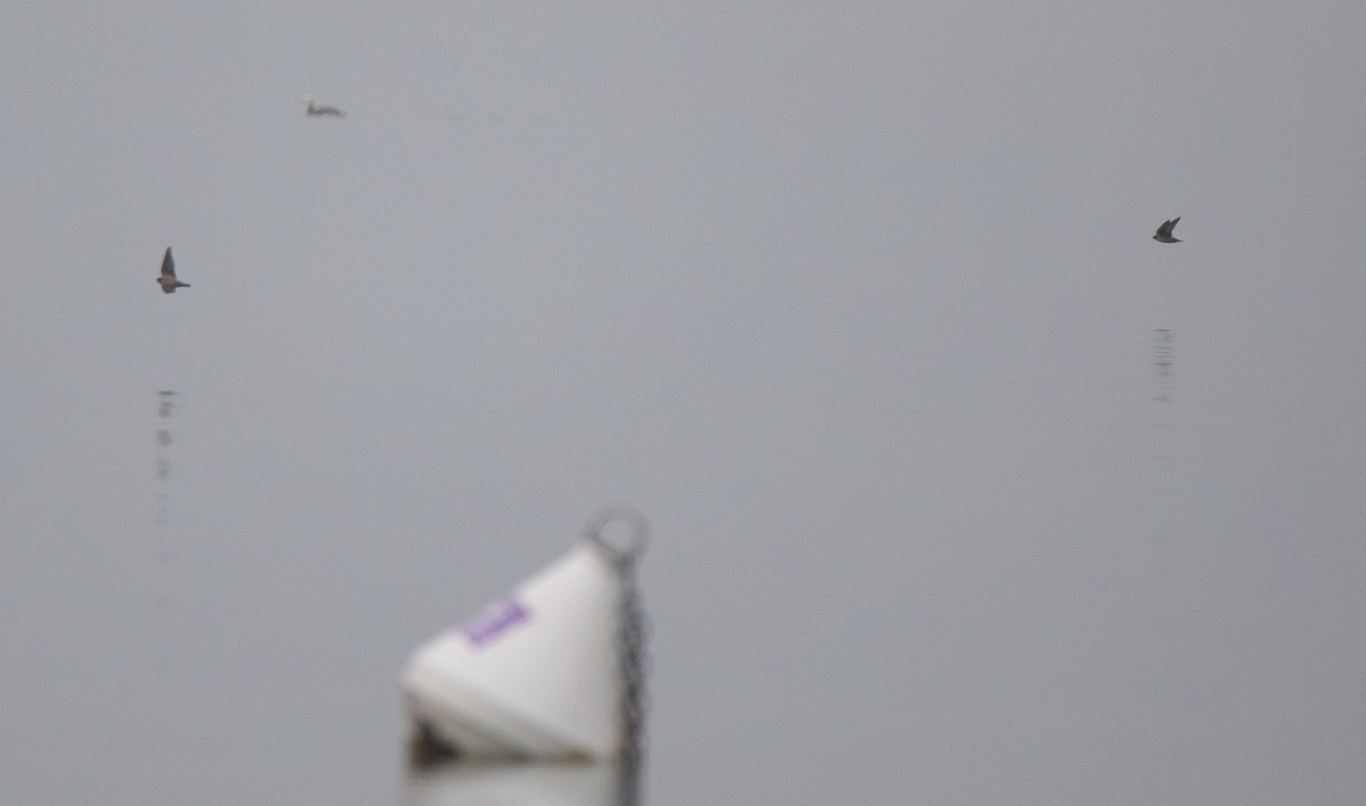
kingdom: Animalia
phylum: Chordata
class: Aves
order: Passeriformes
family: Hirundinidae
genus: Ptyonoprogne
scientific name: Ptyonoprogne rupestris
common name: Eurasian crag martin
